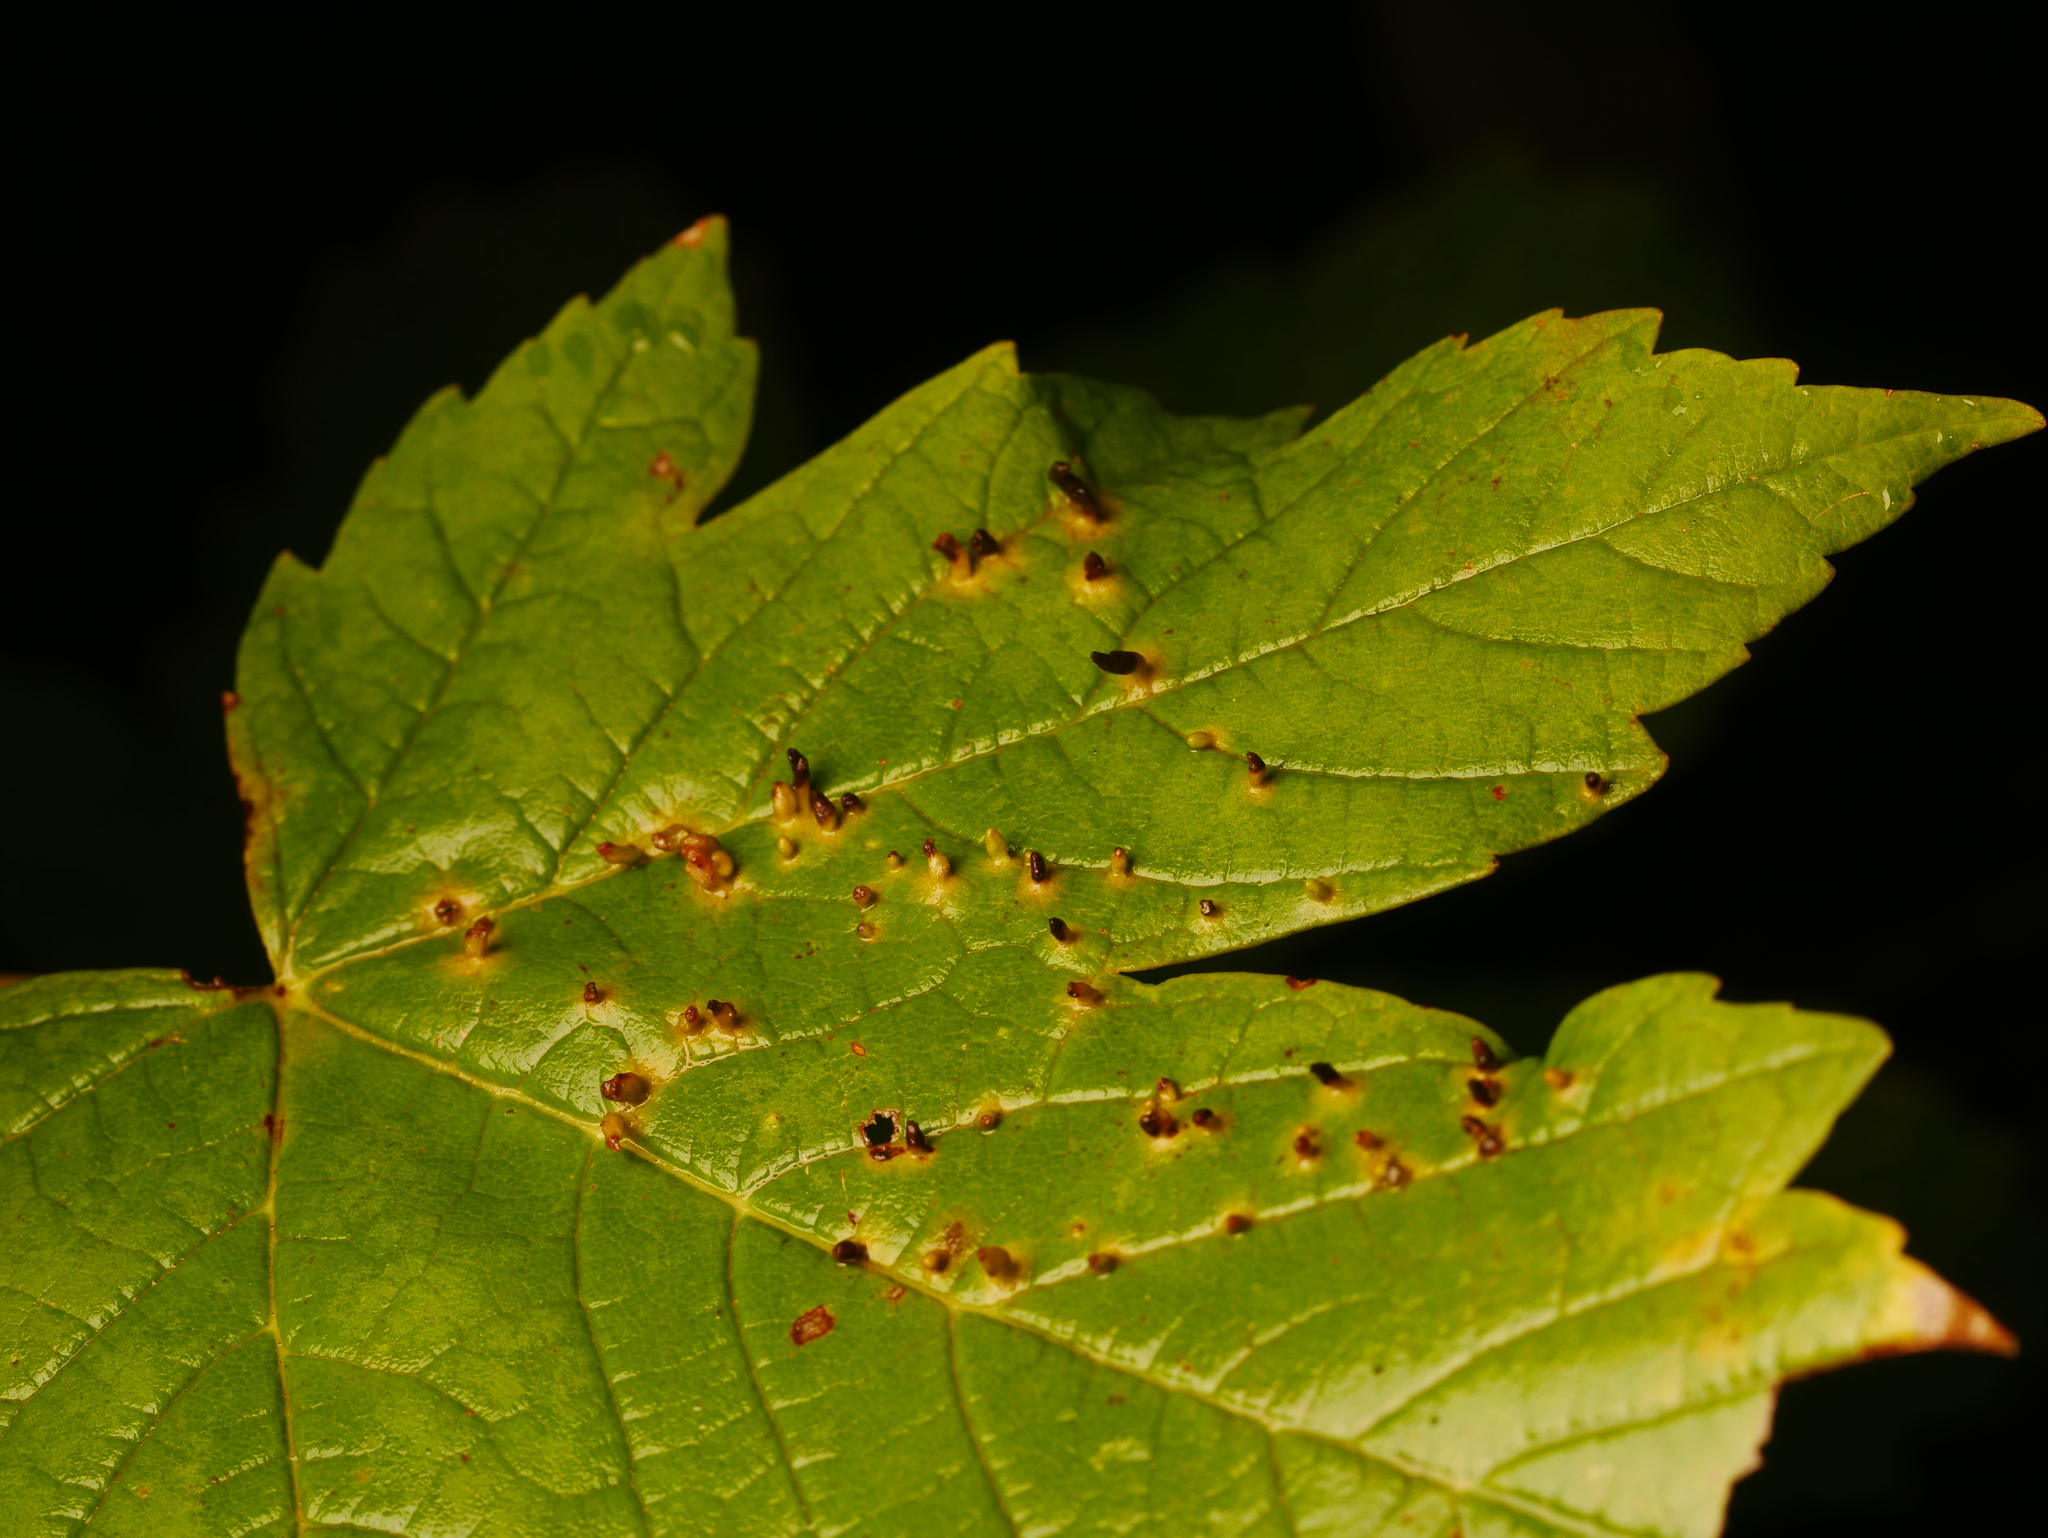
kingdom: Animalia
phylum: Arthropoda
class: Arachnida
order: Trombidiformes
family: Eriophyidae
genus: Aceria
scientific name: Aceria cephaloneus
